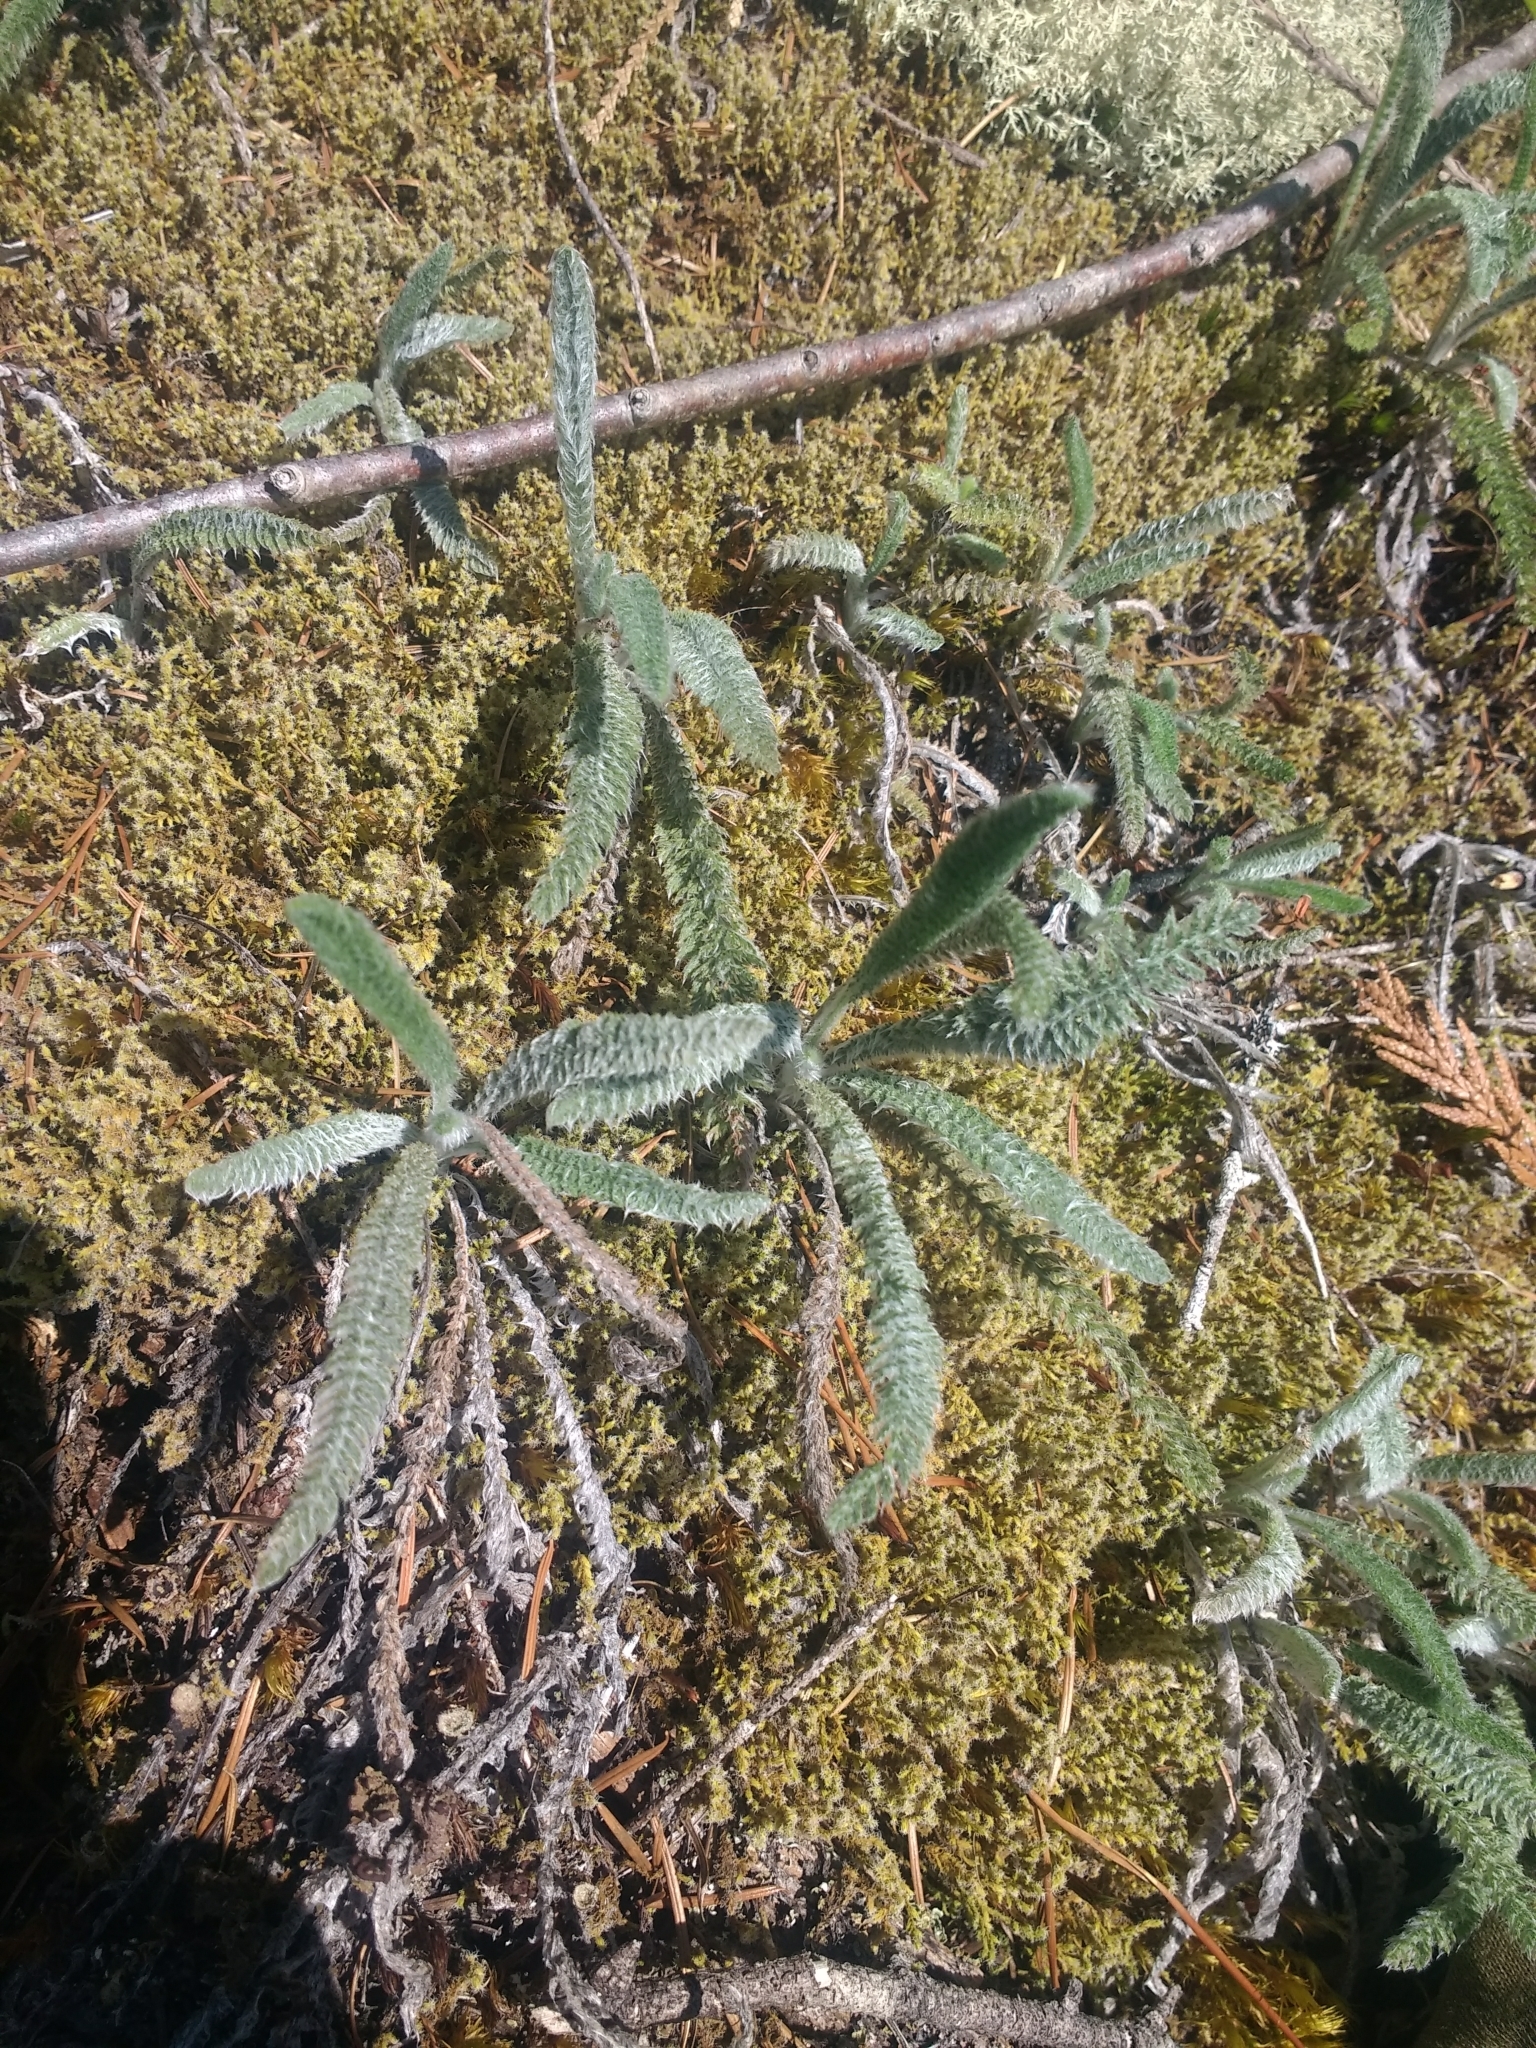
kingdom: Plantae
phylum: Tracheophyta
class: Magnoliopsida
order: Asterales
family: Asteraceae
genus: Achillea
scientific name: Achillea millefolium
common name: Yarrow
